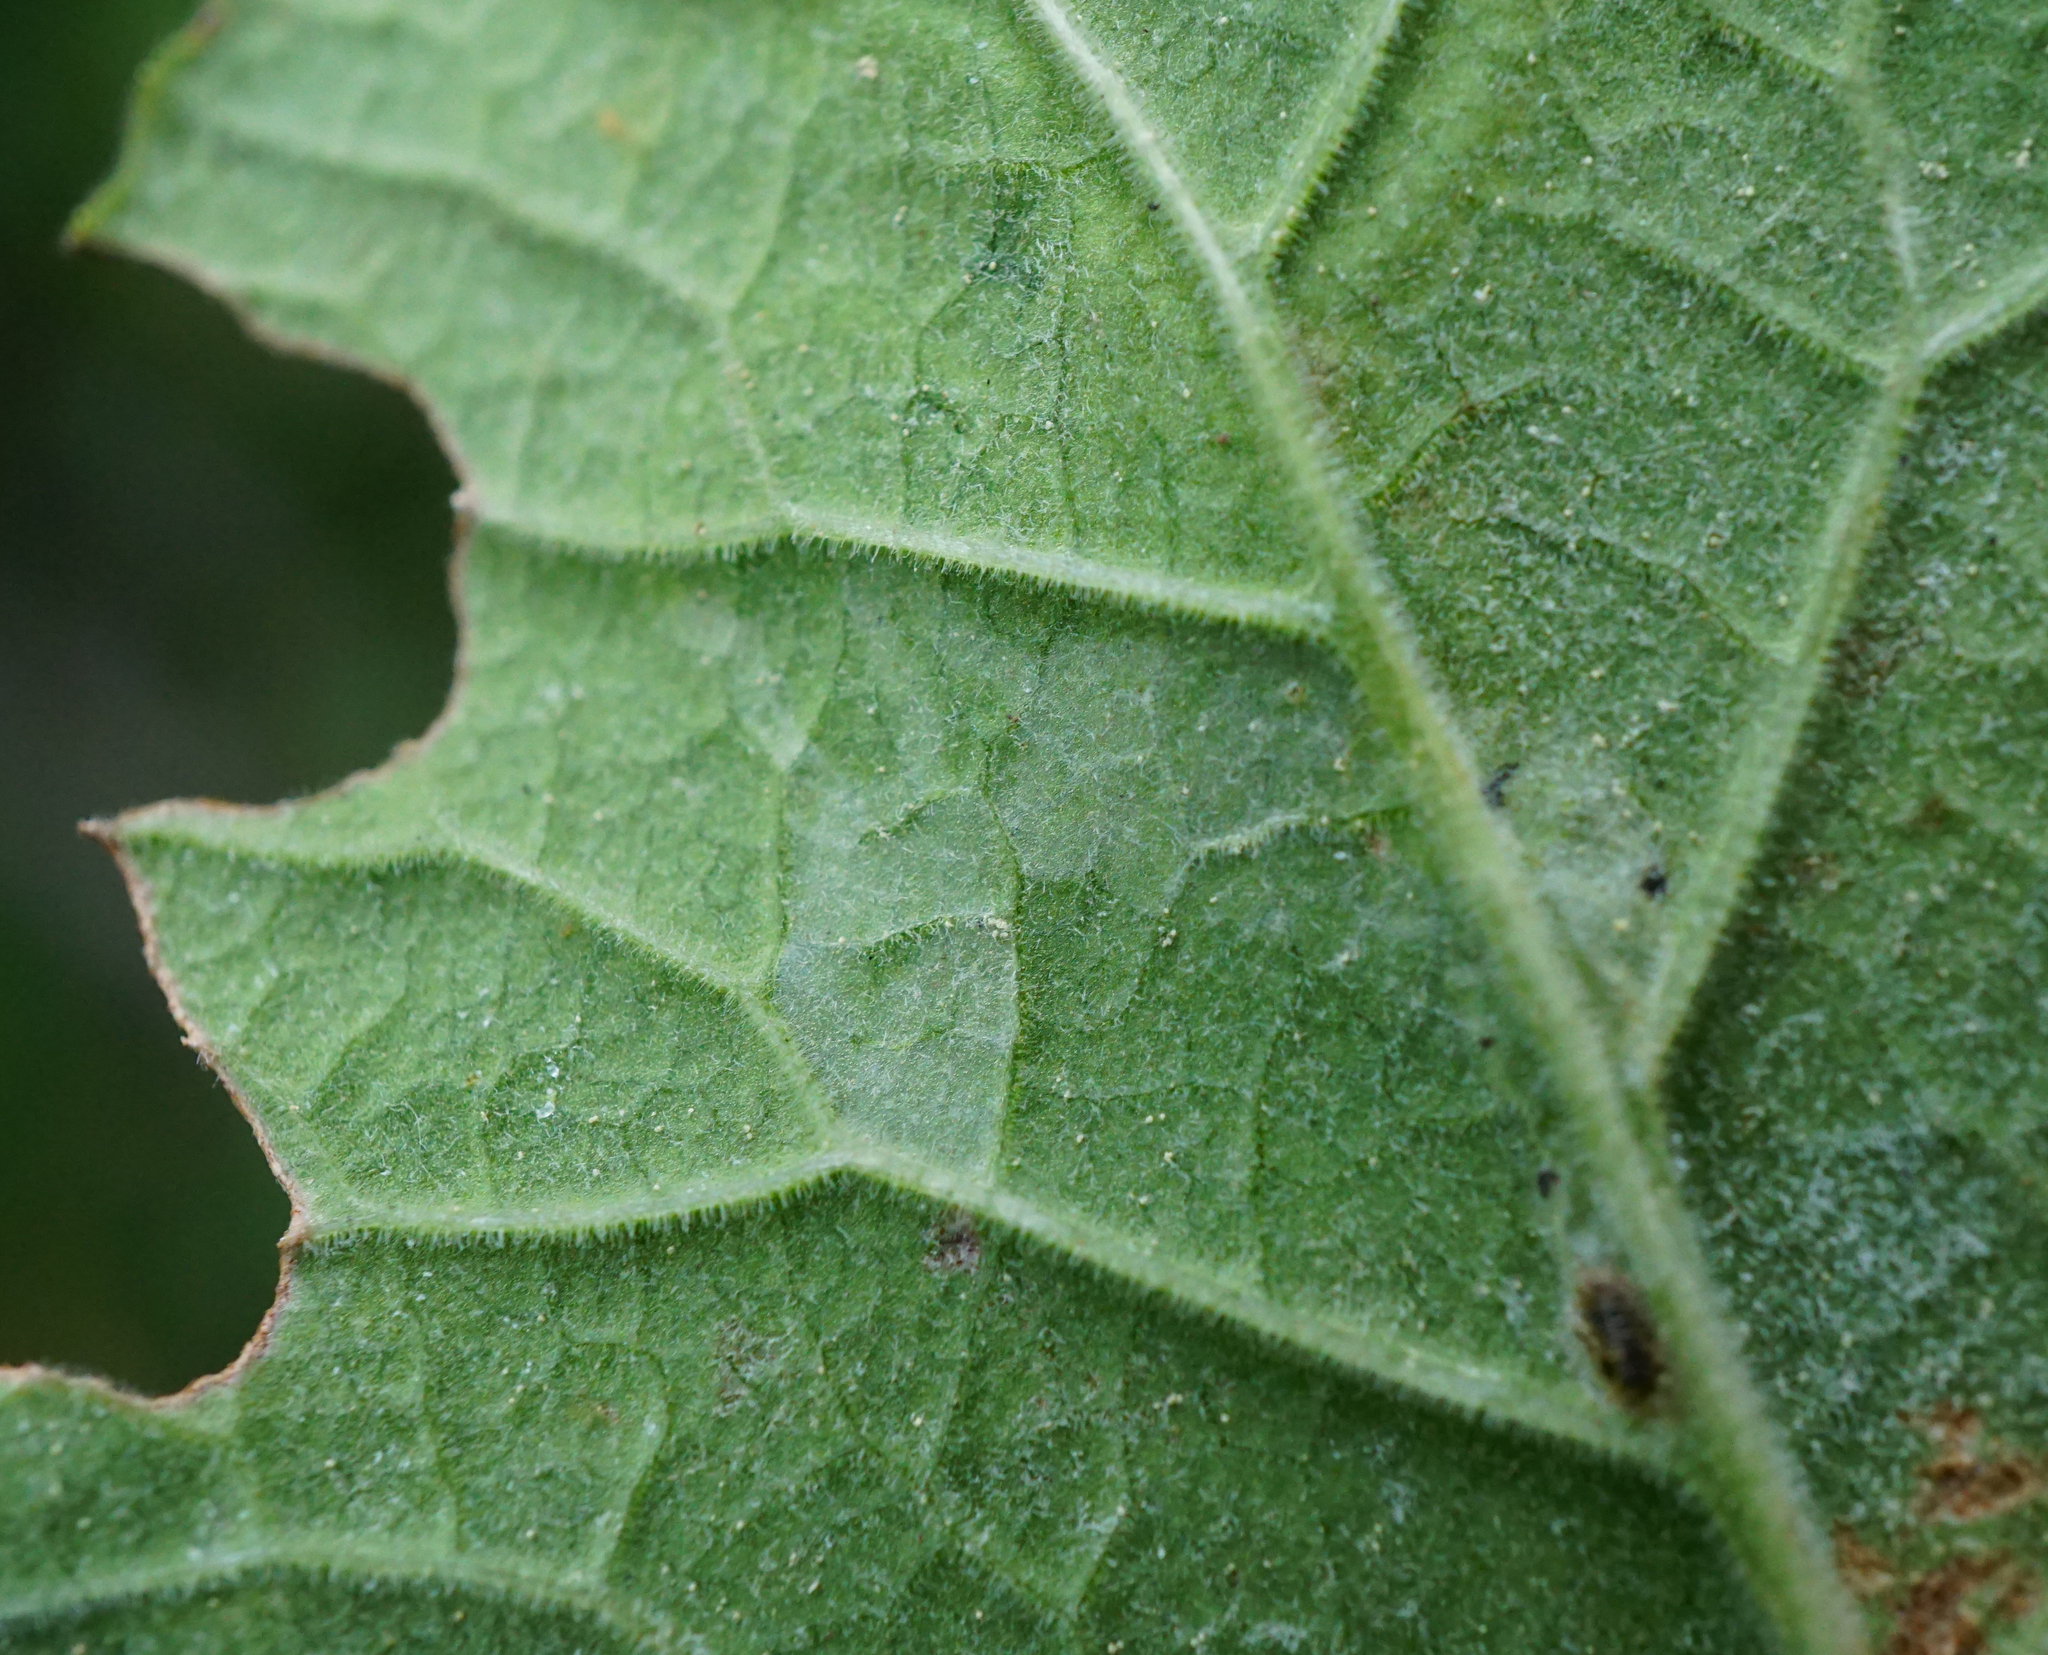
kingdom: Animalia
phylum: Arthropoda
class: Insecta
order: Diptera
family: Agromyzidae
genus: Phytomyza
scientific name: Phytomyza primulae
